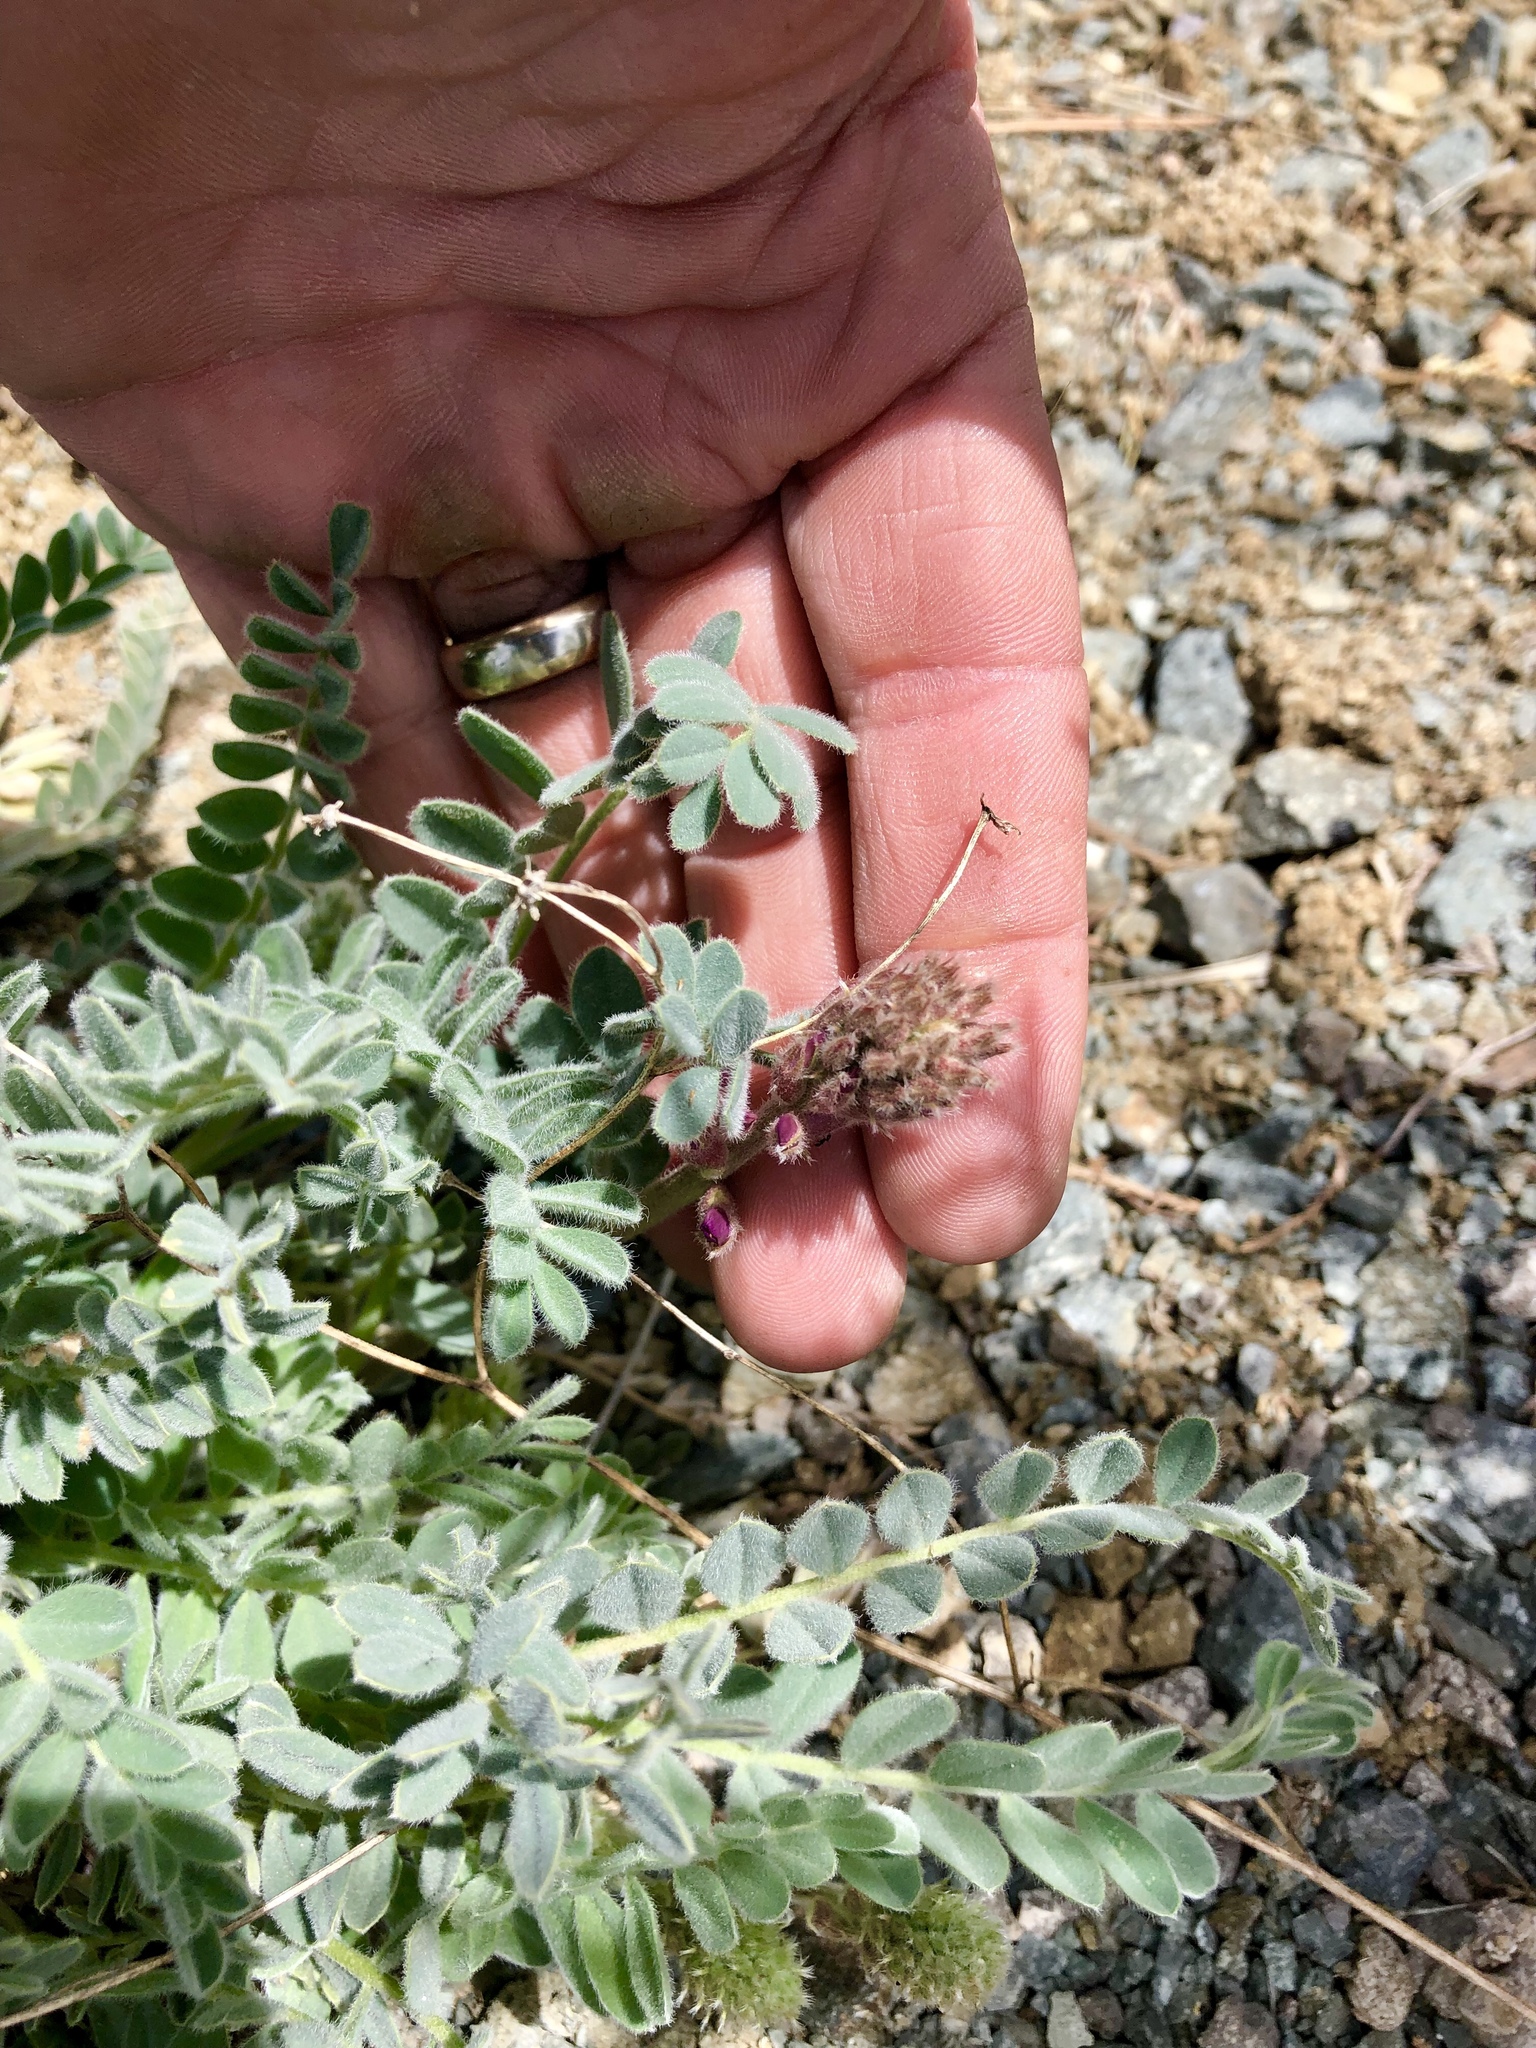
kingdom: Plantae
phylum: Tracheophyta
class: Magnoliopsida
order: Fabales
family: Fabaceae
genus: Astragalus
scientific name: Astragalus mollissimus
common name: Woolly locoweed
